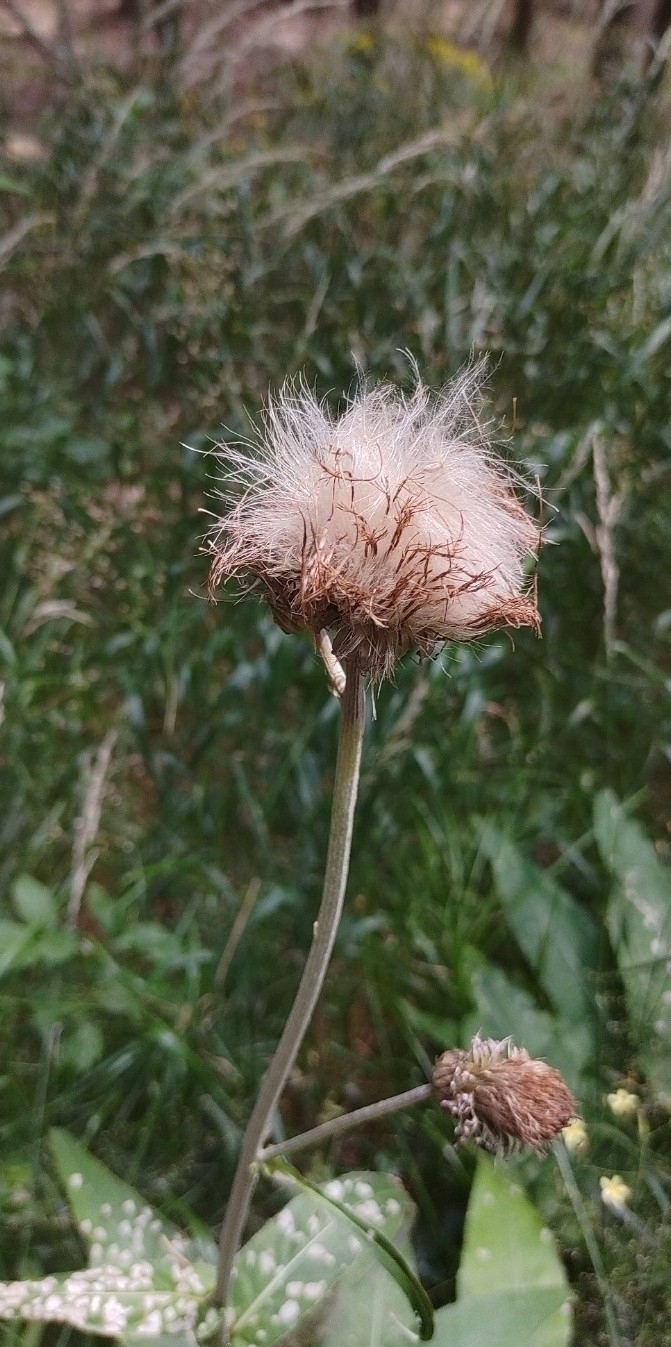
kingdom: Plantae
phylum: Tracheophyta
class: Magnoliopsida
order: Asterales
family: Asteraceae
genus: Cirsium
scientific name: Cirsium heterophyllum
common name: Melancholy thistle
